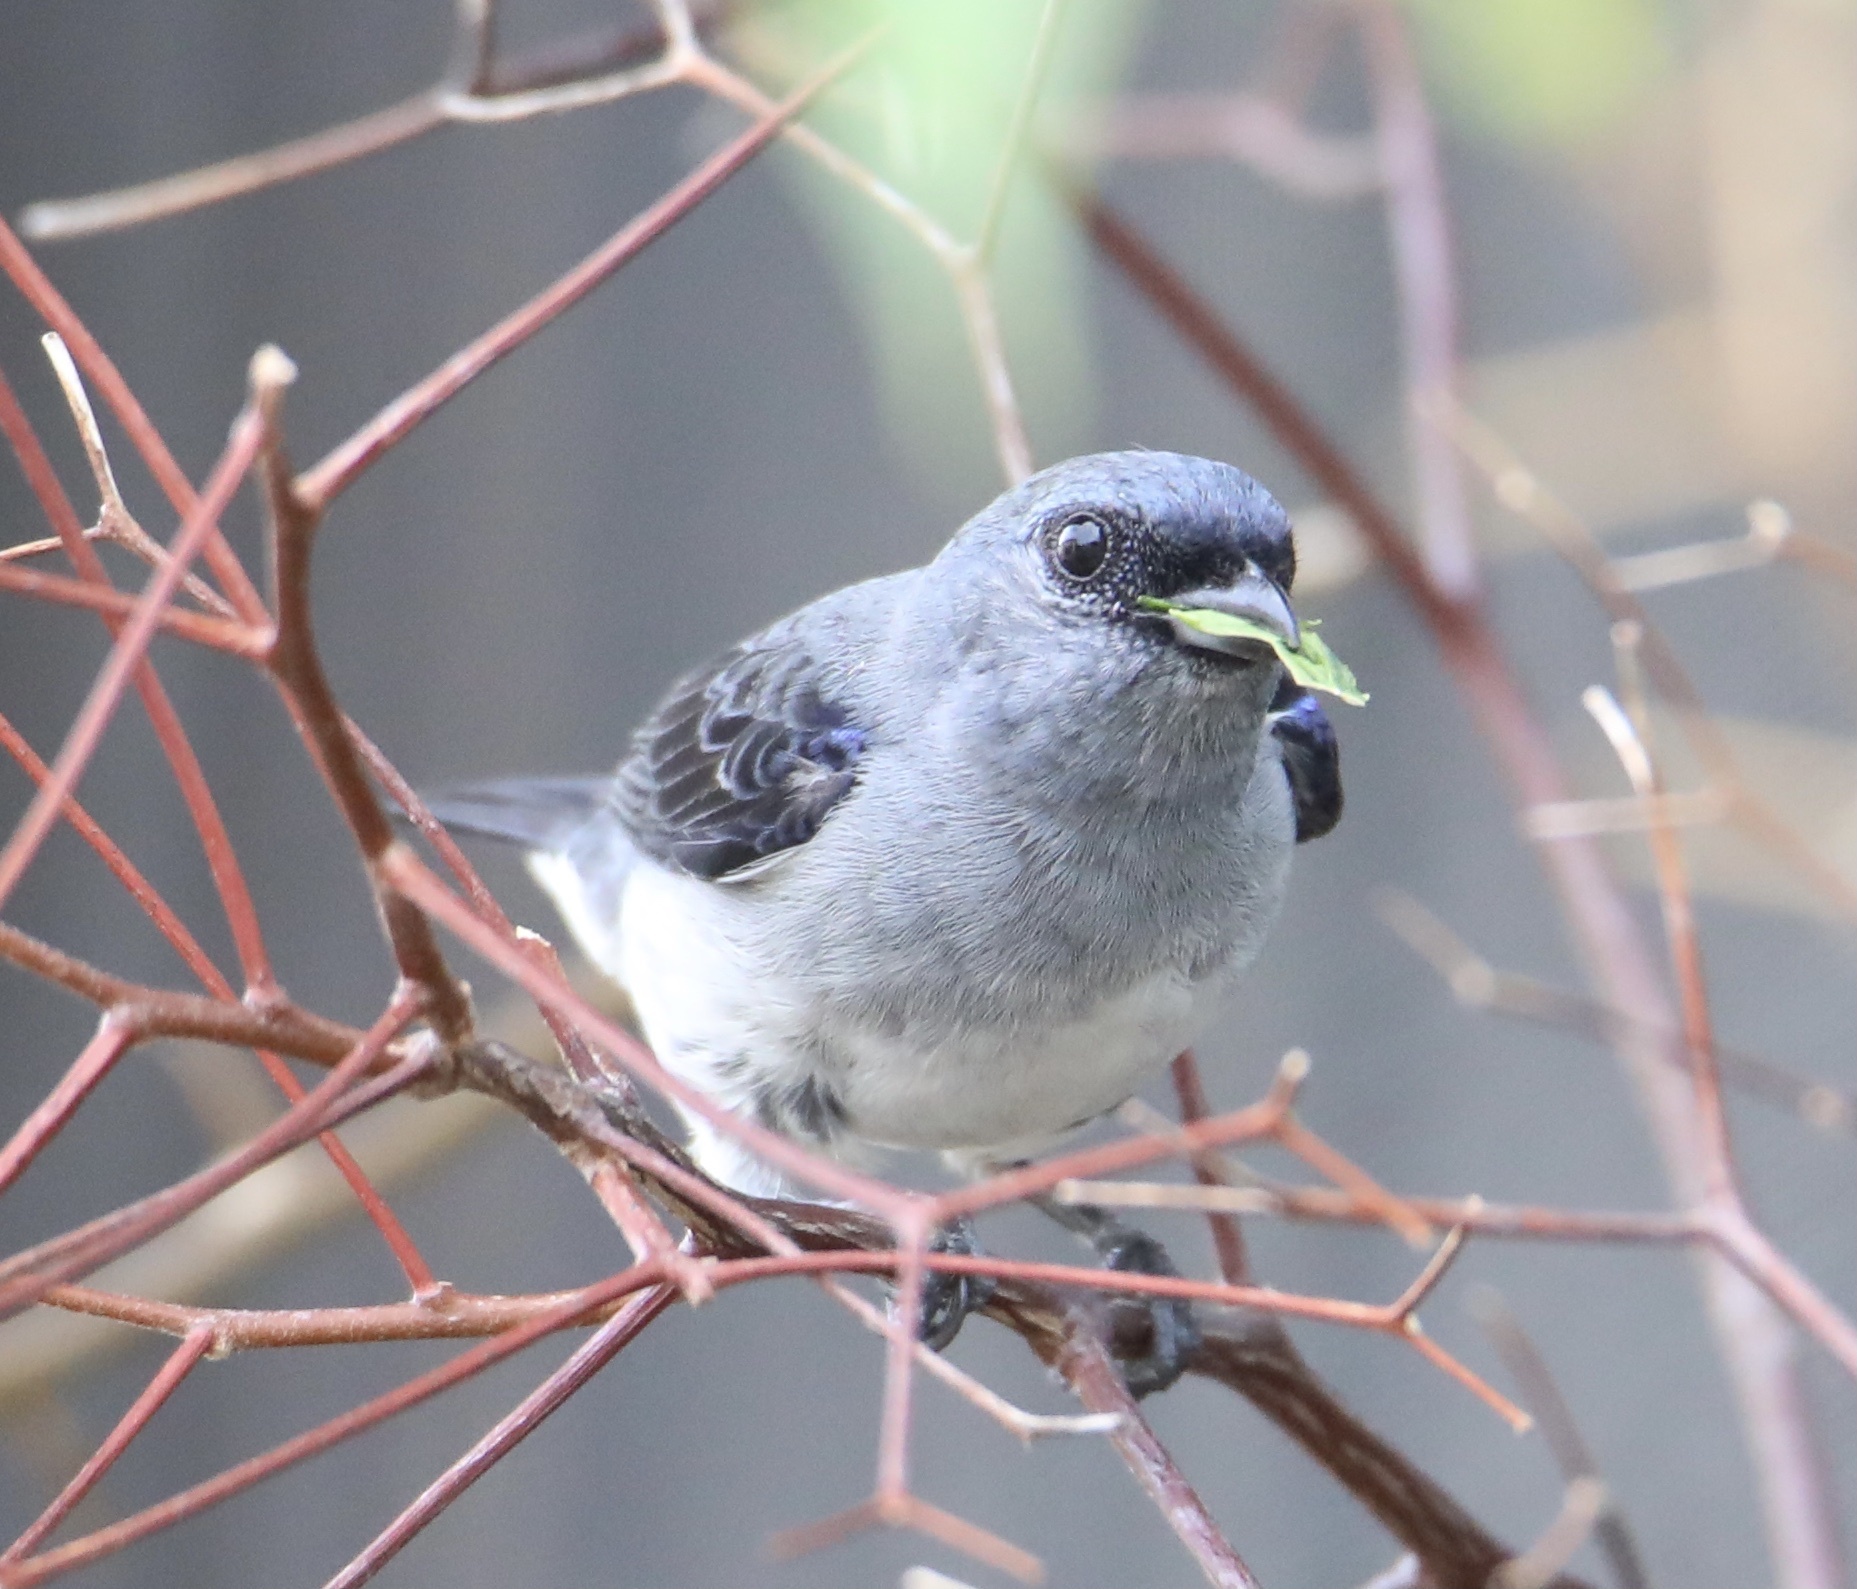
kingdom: Animalia
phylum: Chordata
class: Aves
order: Passeriformes
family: Thraupidae
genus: Tangara
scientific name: Tangara inornata
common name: Plain-colored tanager
